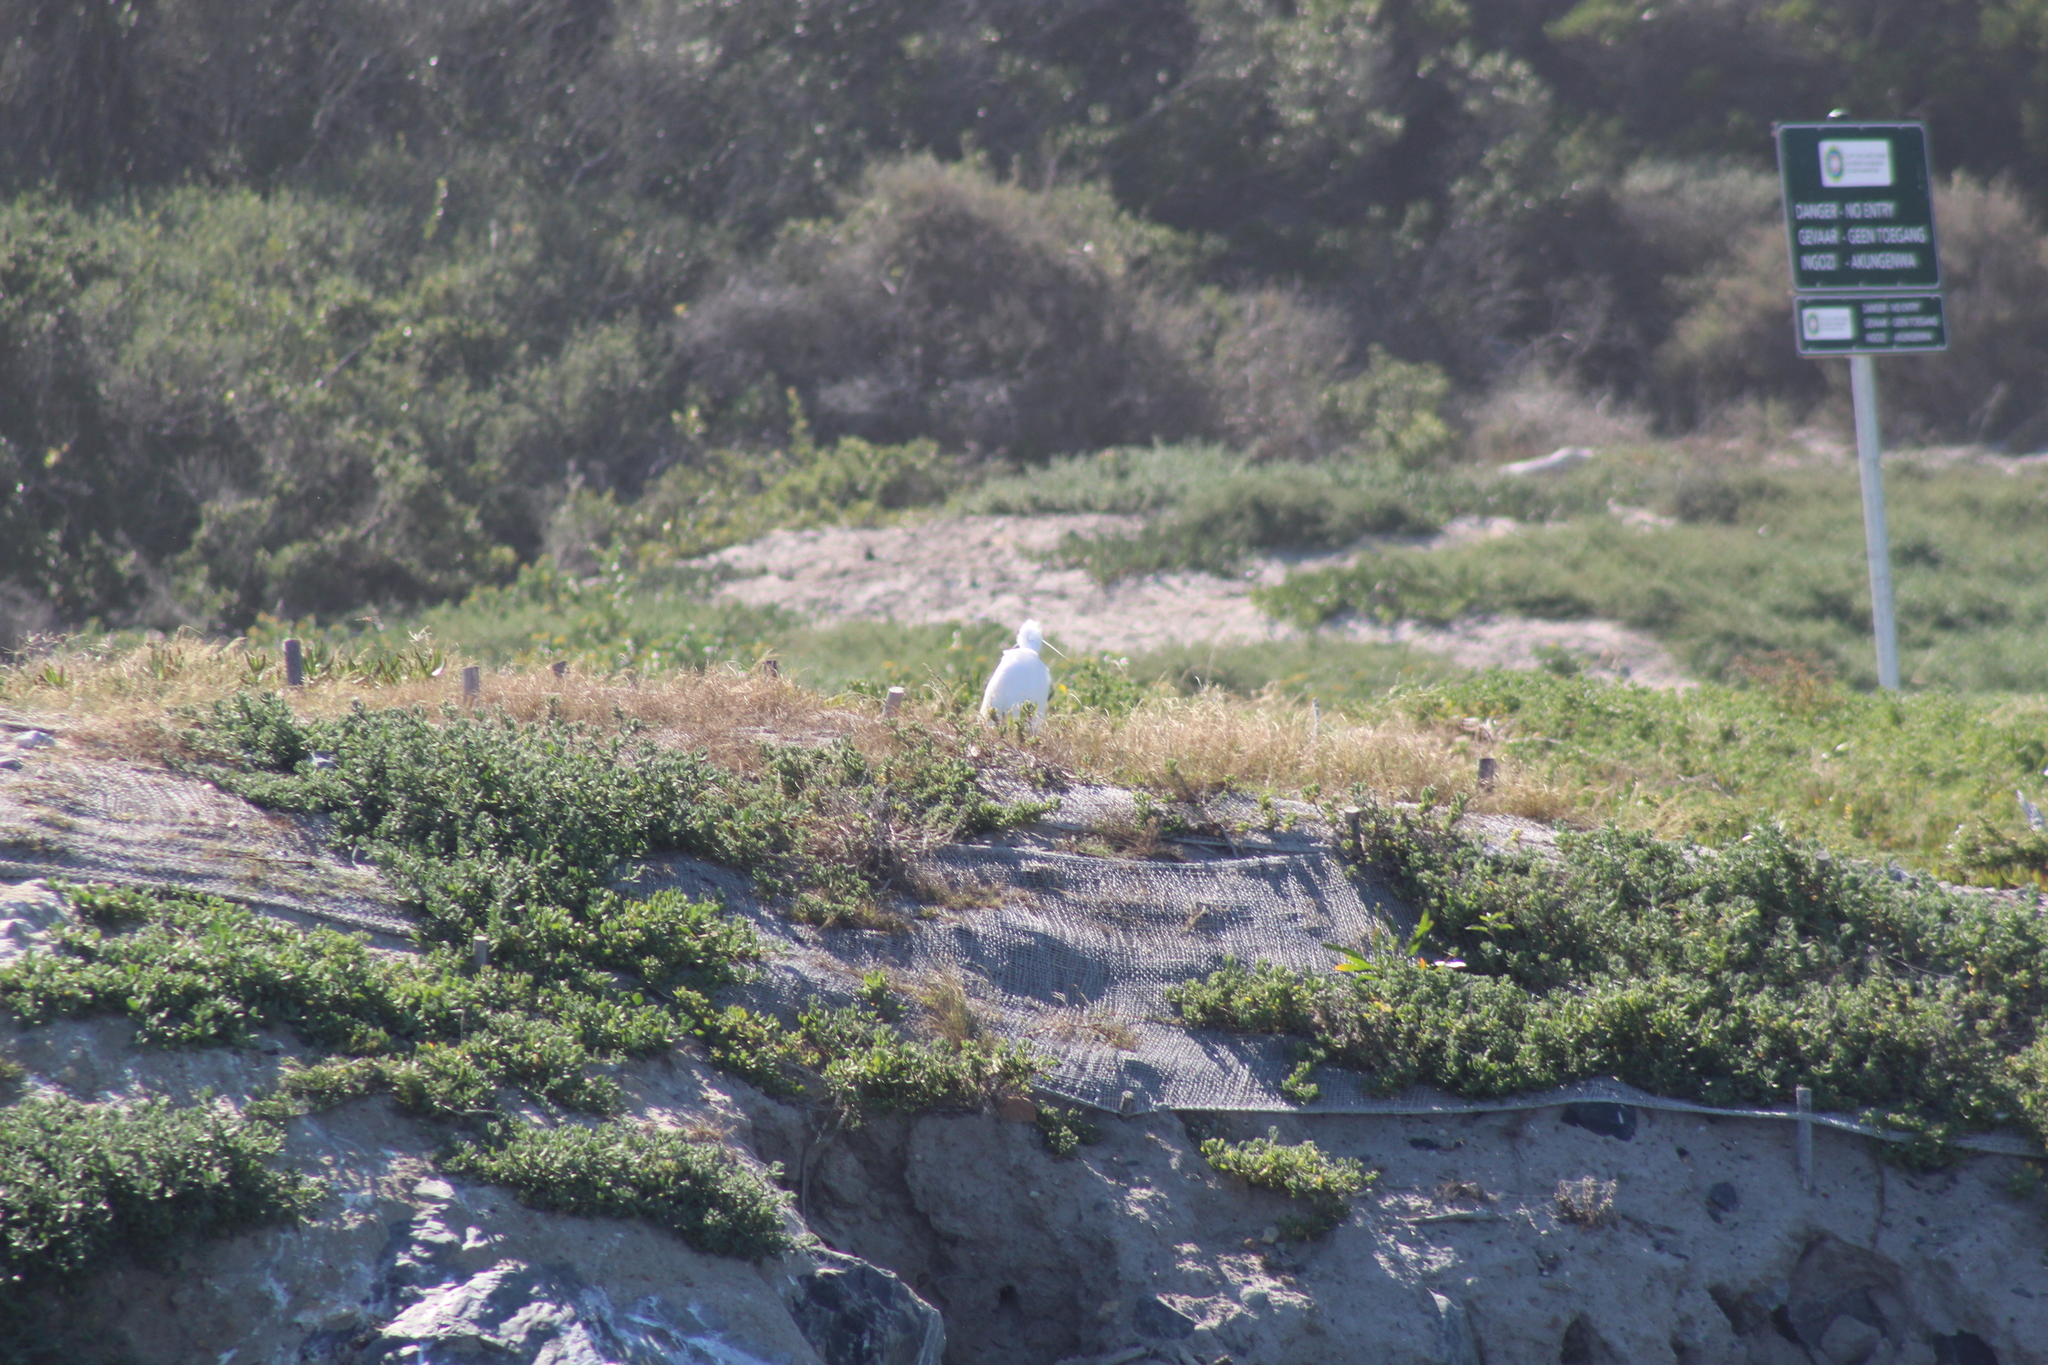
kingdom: Animalia
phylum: Chordata
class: Aves
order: Pelecaniformes
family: Ardeidae
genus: Egretta
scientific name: Egretta garzetta
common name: Little egret
